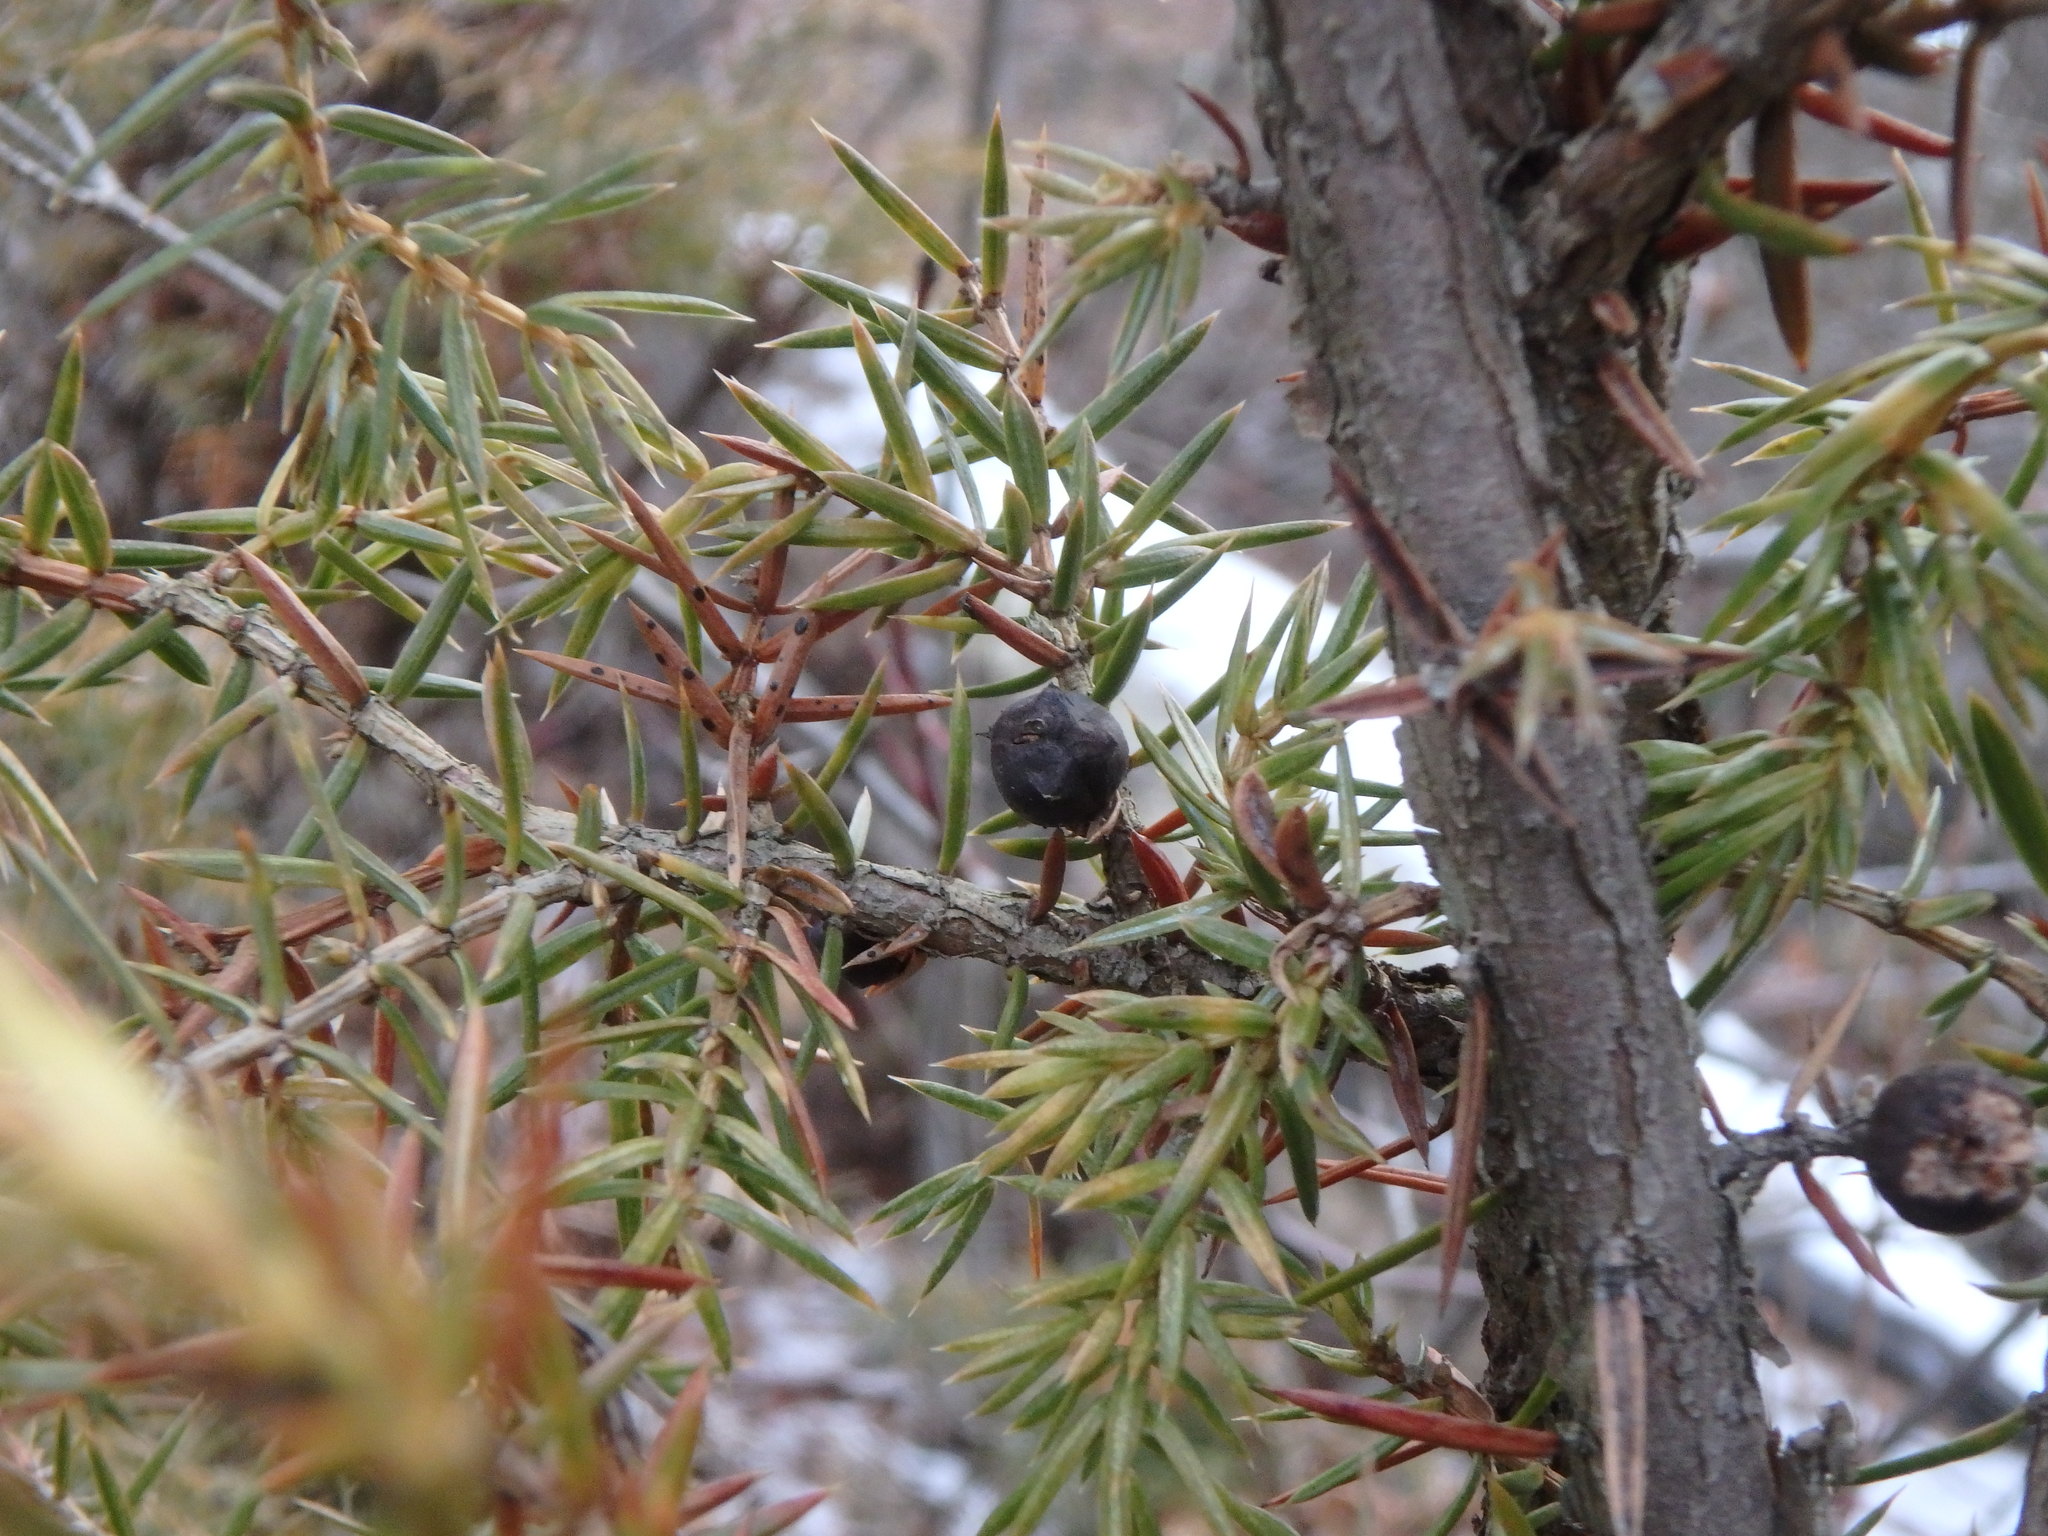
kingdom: Plantae
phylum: Tracheophyta
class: Pinopsida
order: Pinales
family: Cupressaceae
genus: Juniperus
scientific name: Juniperus communis
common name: Common juniper
